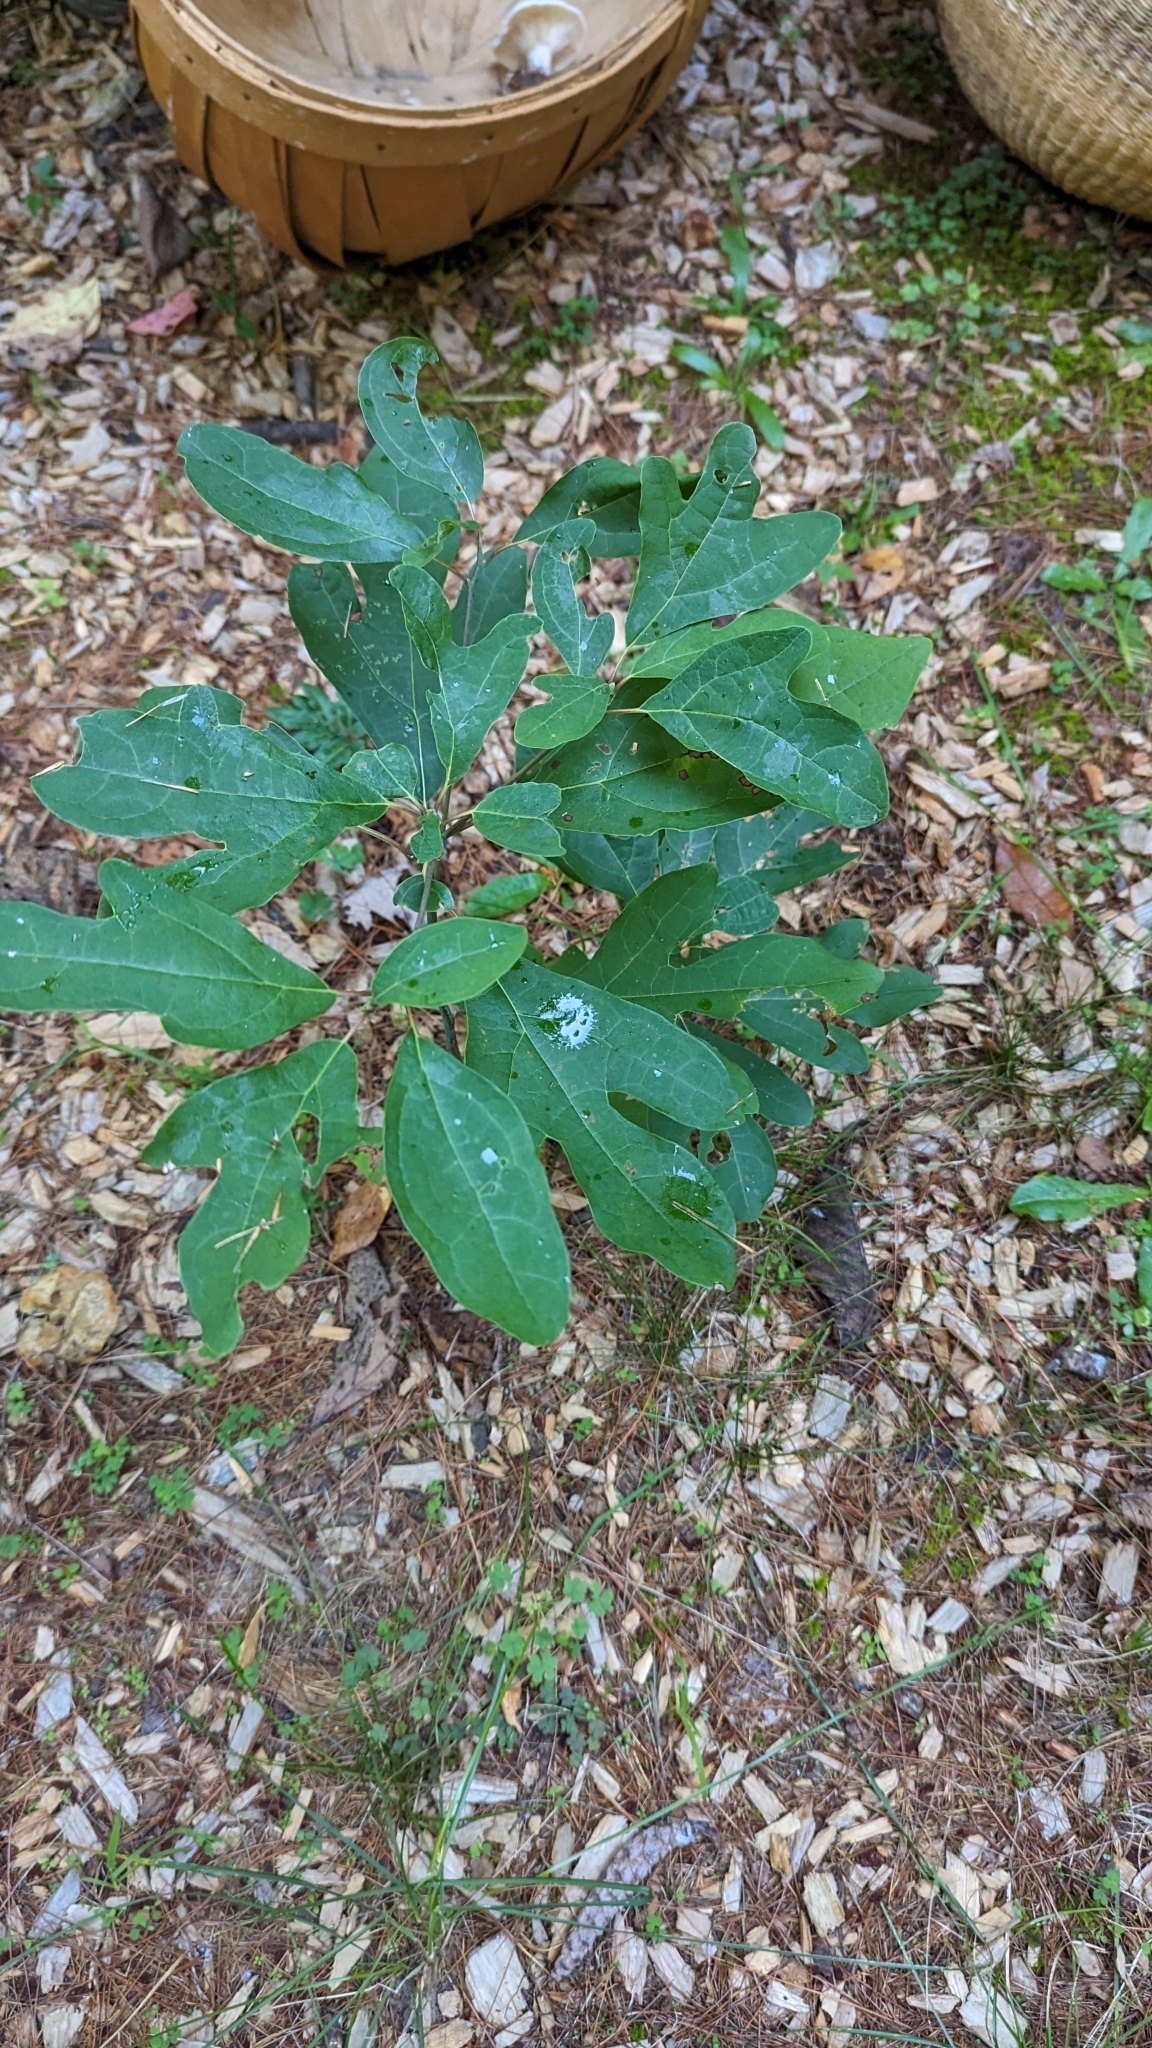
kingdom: Plantae
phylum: Tracheophyta
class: Magnoliopsida
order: Laurales
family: Lauraceae
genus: Sassafras
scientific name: Sassafras albidum
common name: Sassafras
